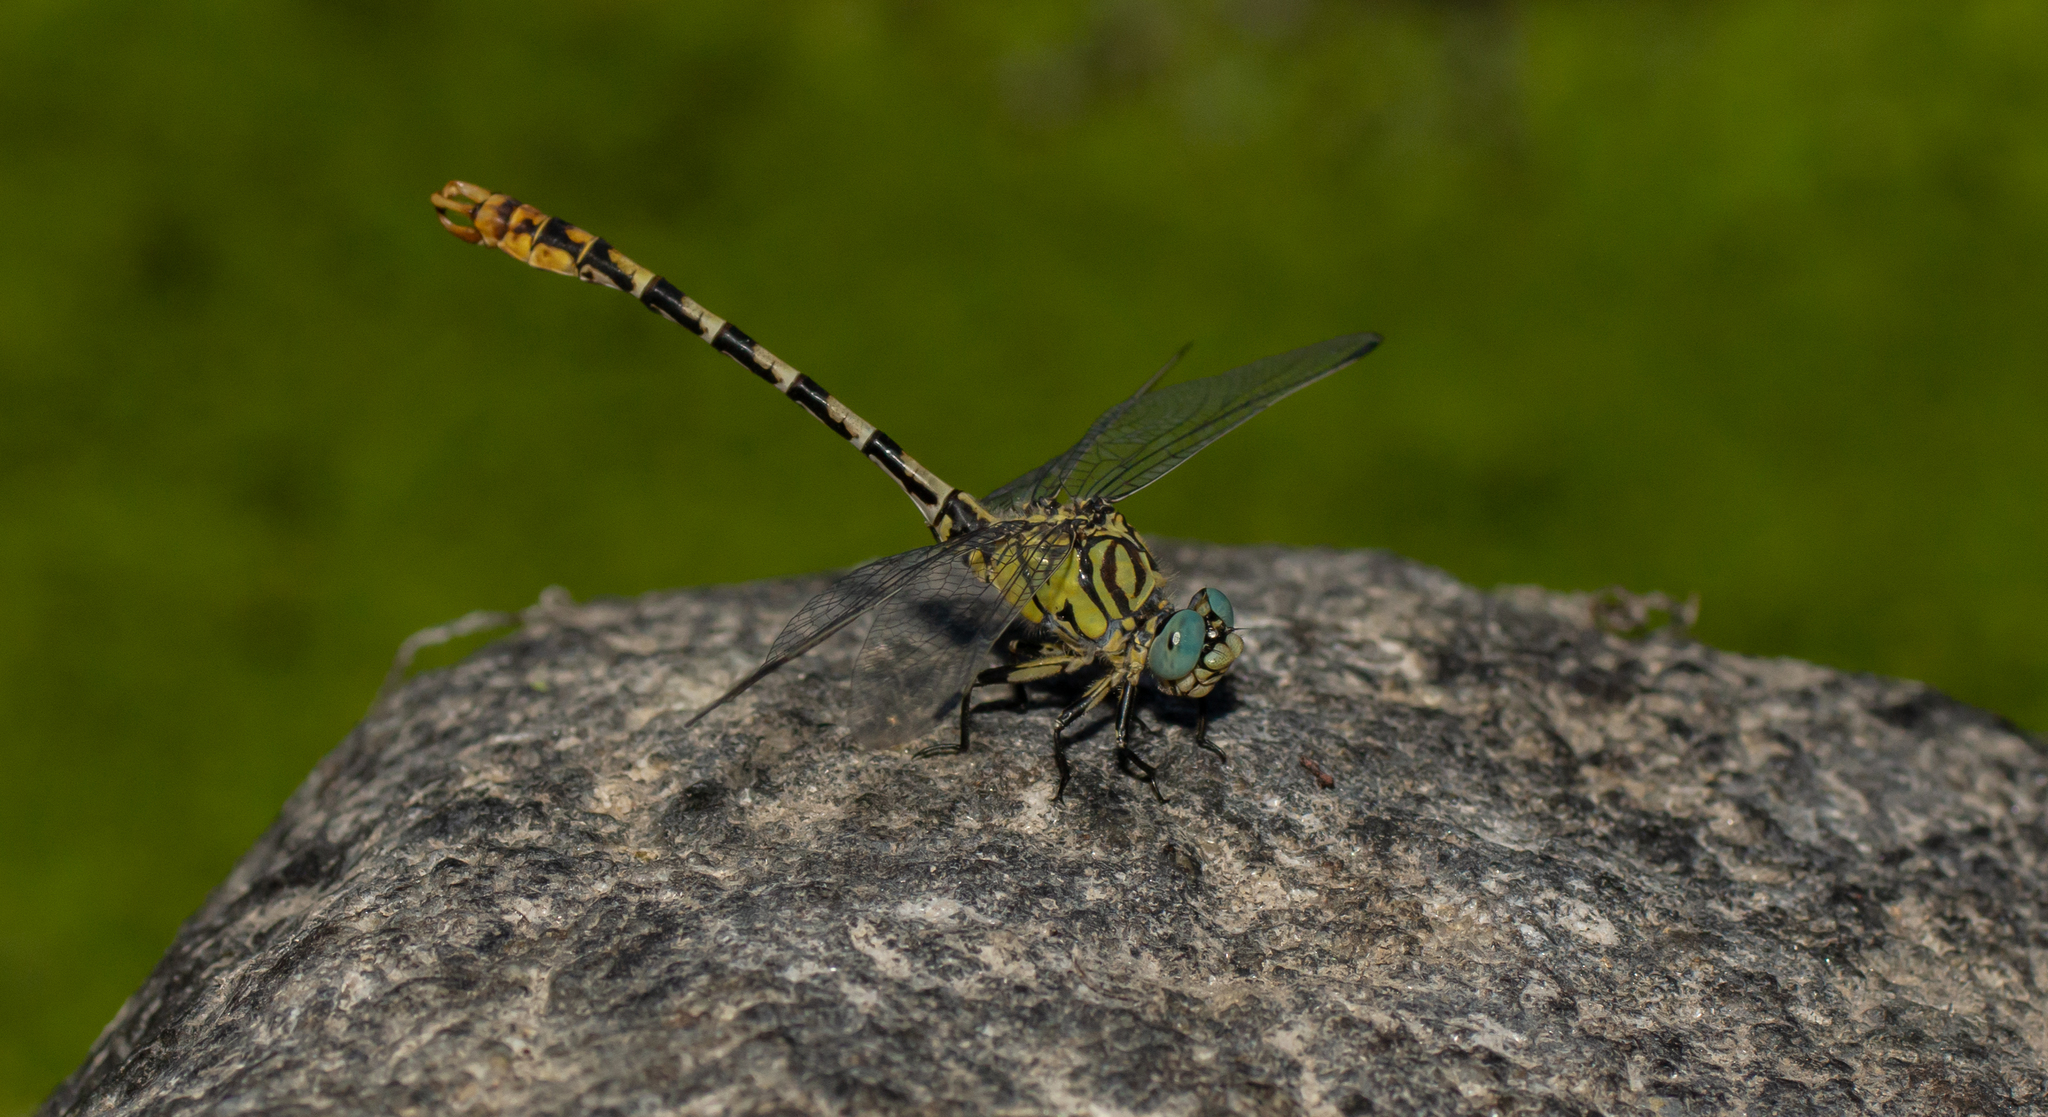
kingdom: Animalia
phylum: Arthropoda
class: Insecta
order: Odonata
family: Gomphidae
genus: Onychogomphus
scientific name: Onychogomphus forcipatus
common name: Small pincertail
